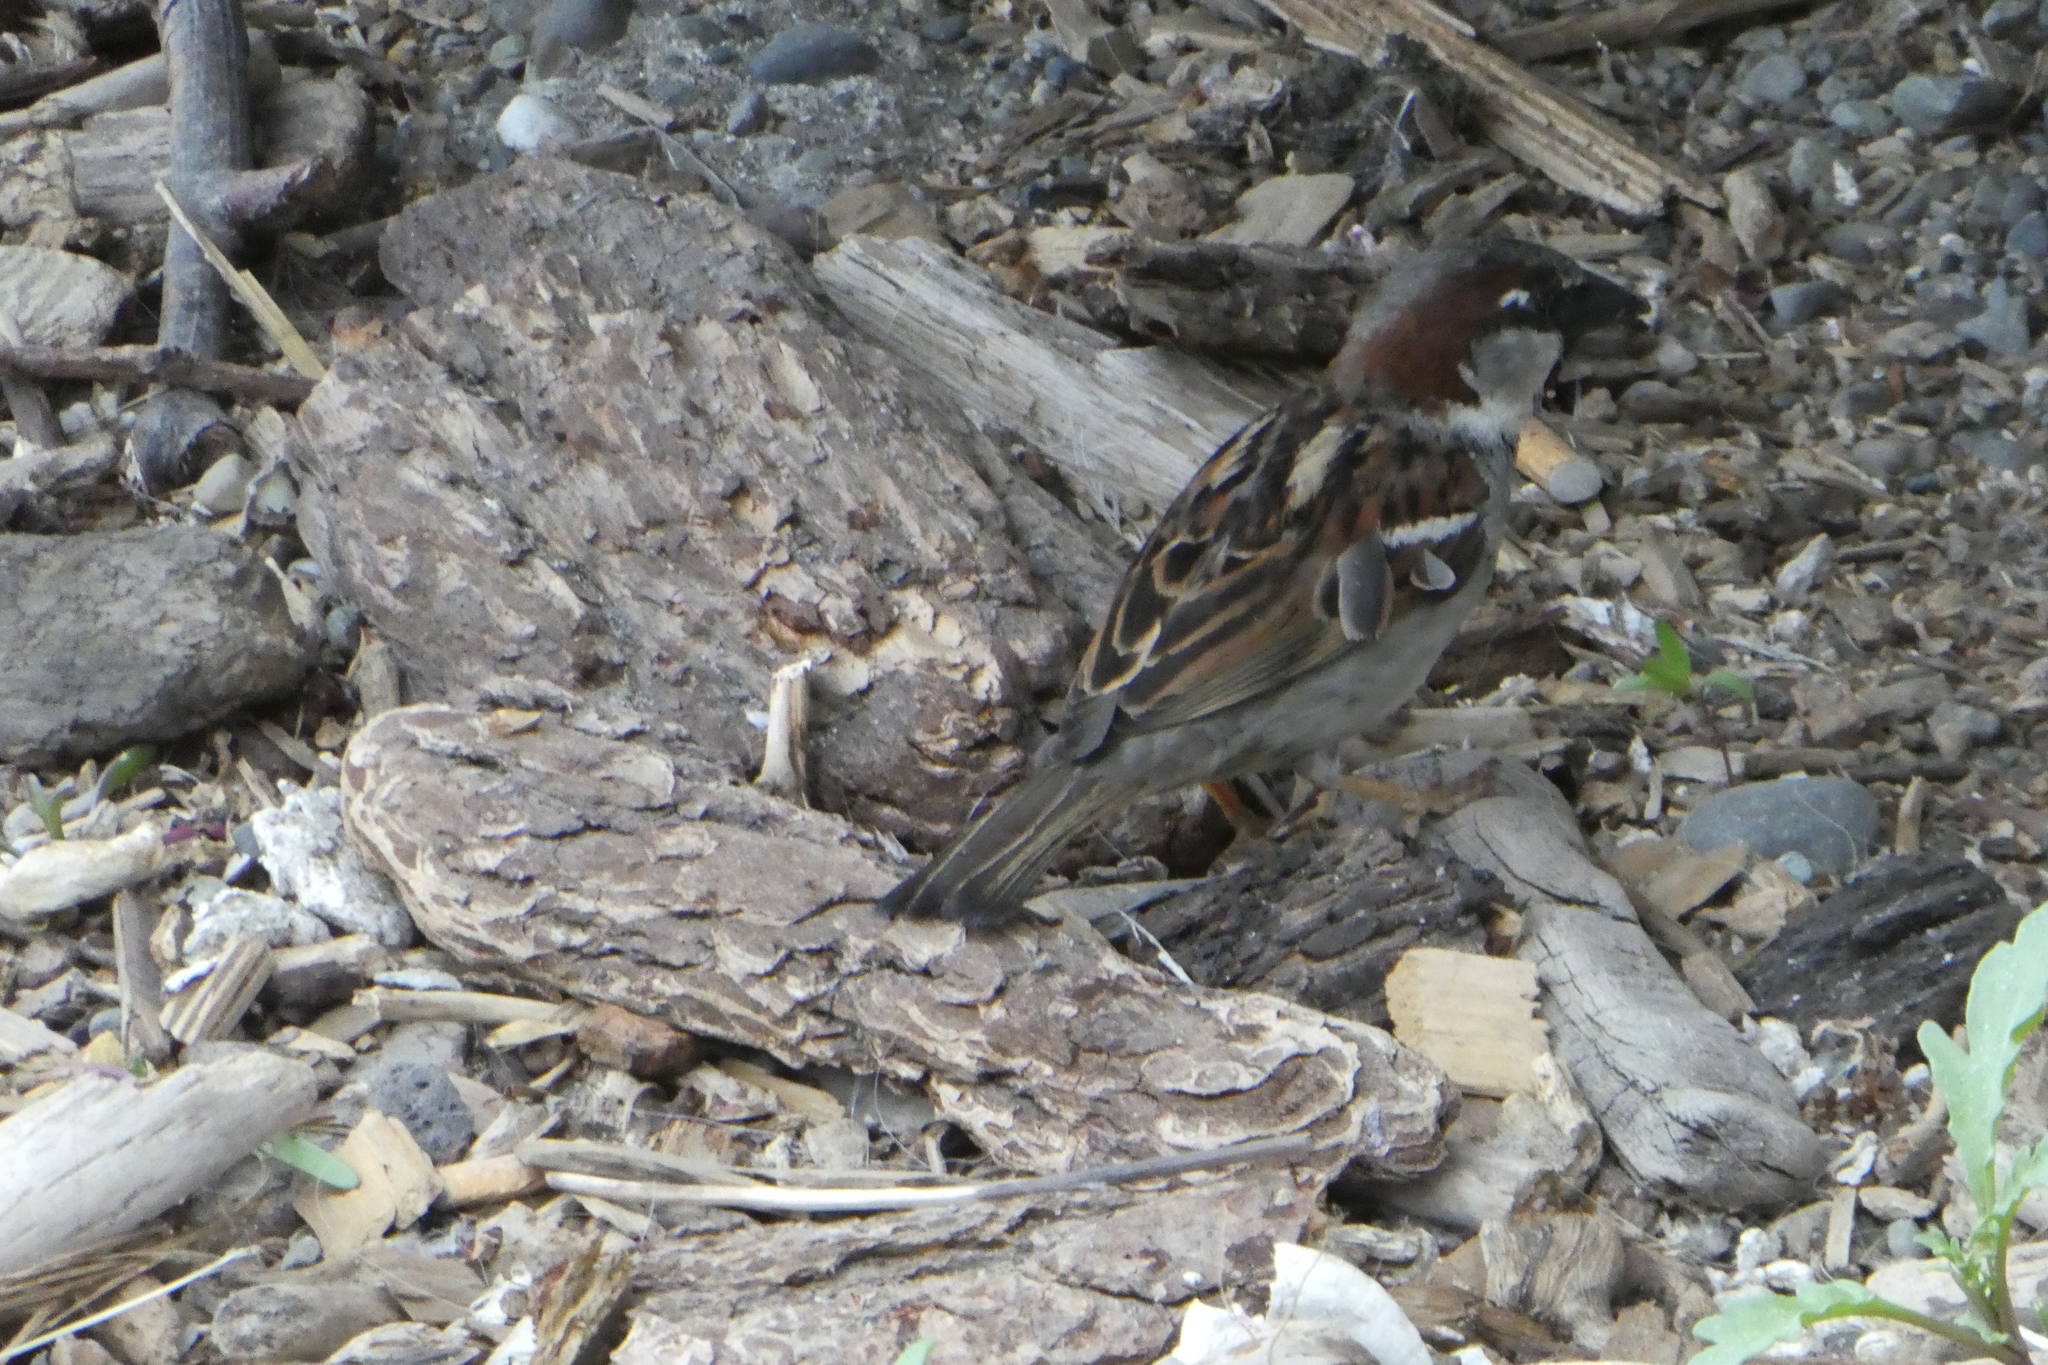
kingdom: Animalia
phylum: Chordata
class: Aves
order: Passeriformes
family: Passeridae
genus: Passer
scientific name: Passer domesticus
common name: House sparrow
